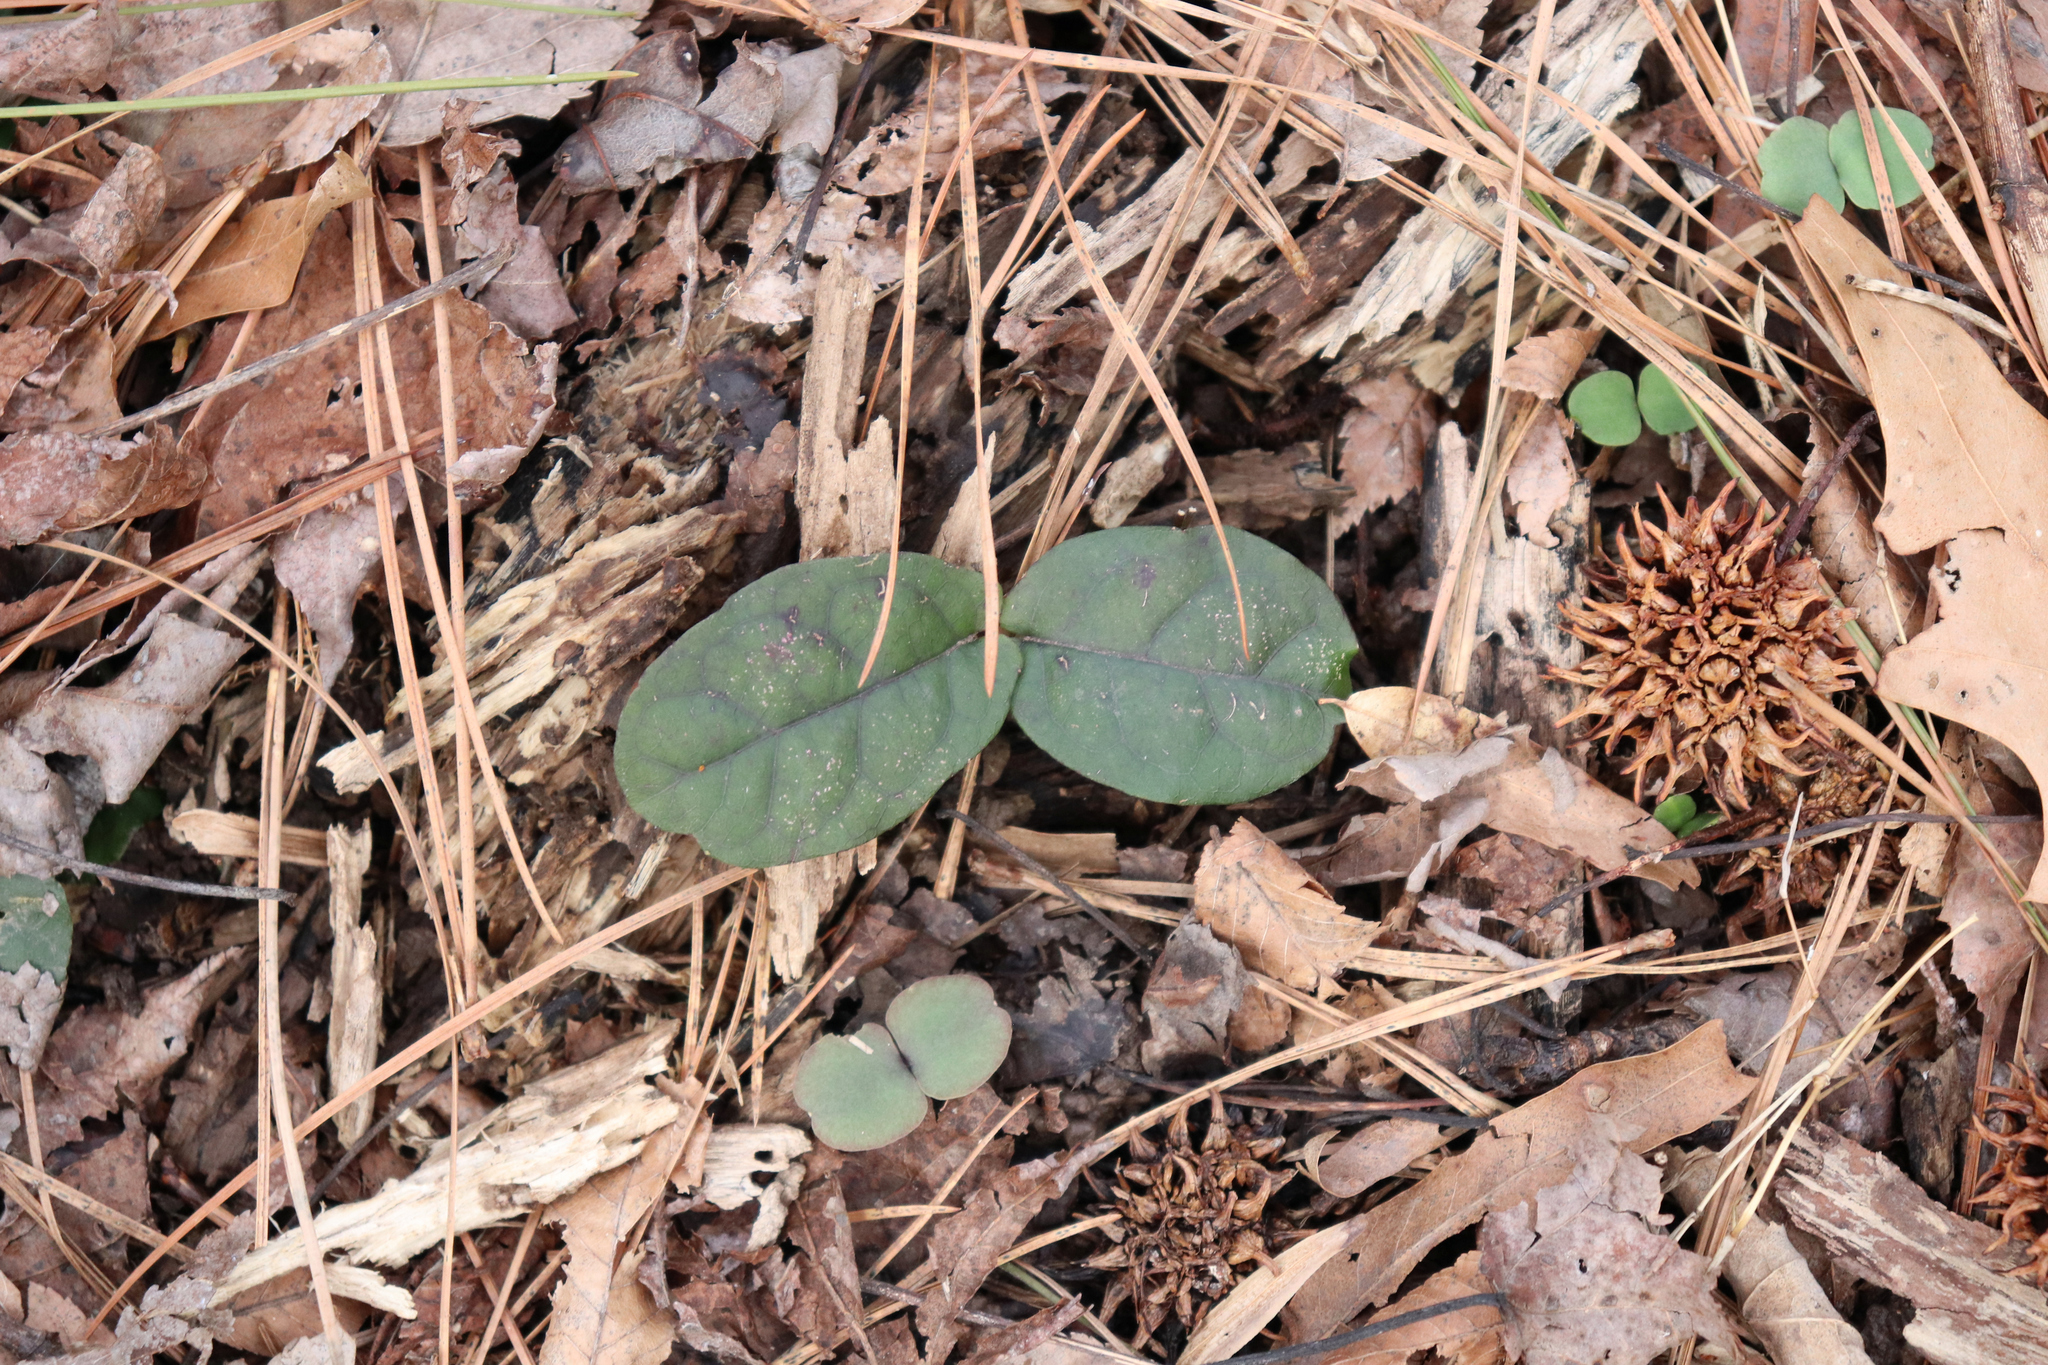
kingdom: Plantae
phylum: Tracheophyta
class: Magnoliopsida
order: Lamiales
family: Bignoniaceae
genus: Bignonia
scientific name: Bignonia capreolata
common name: Crossvine
